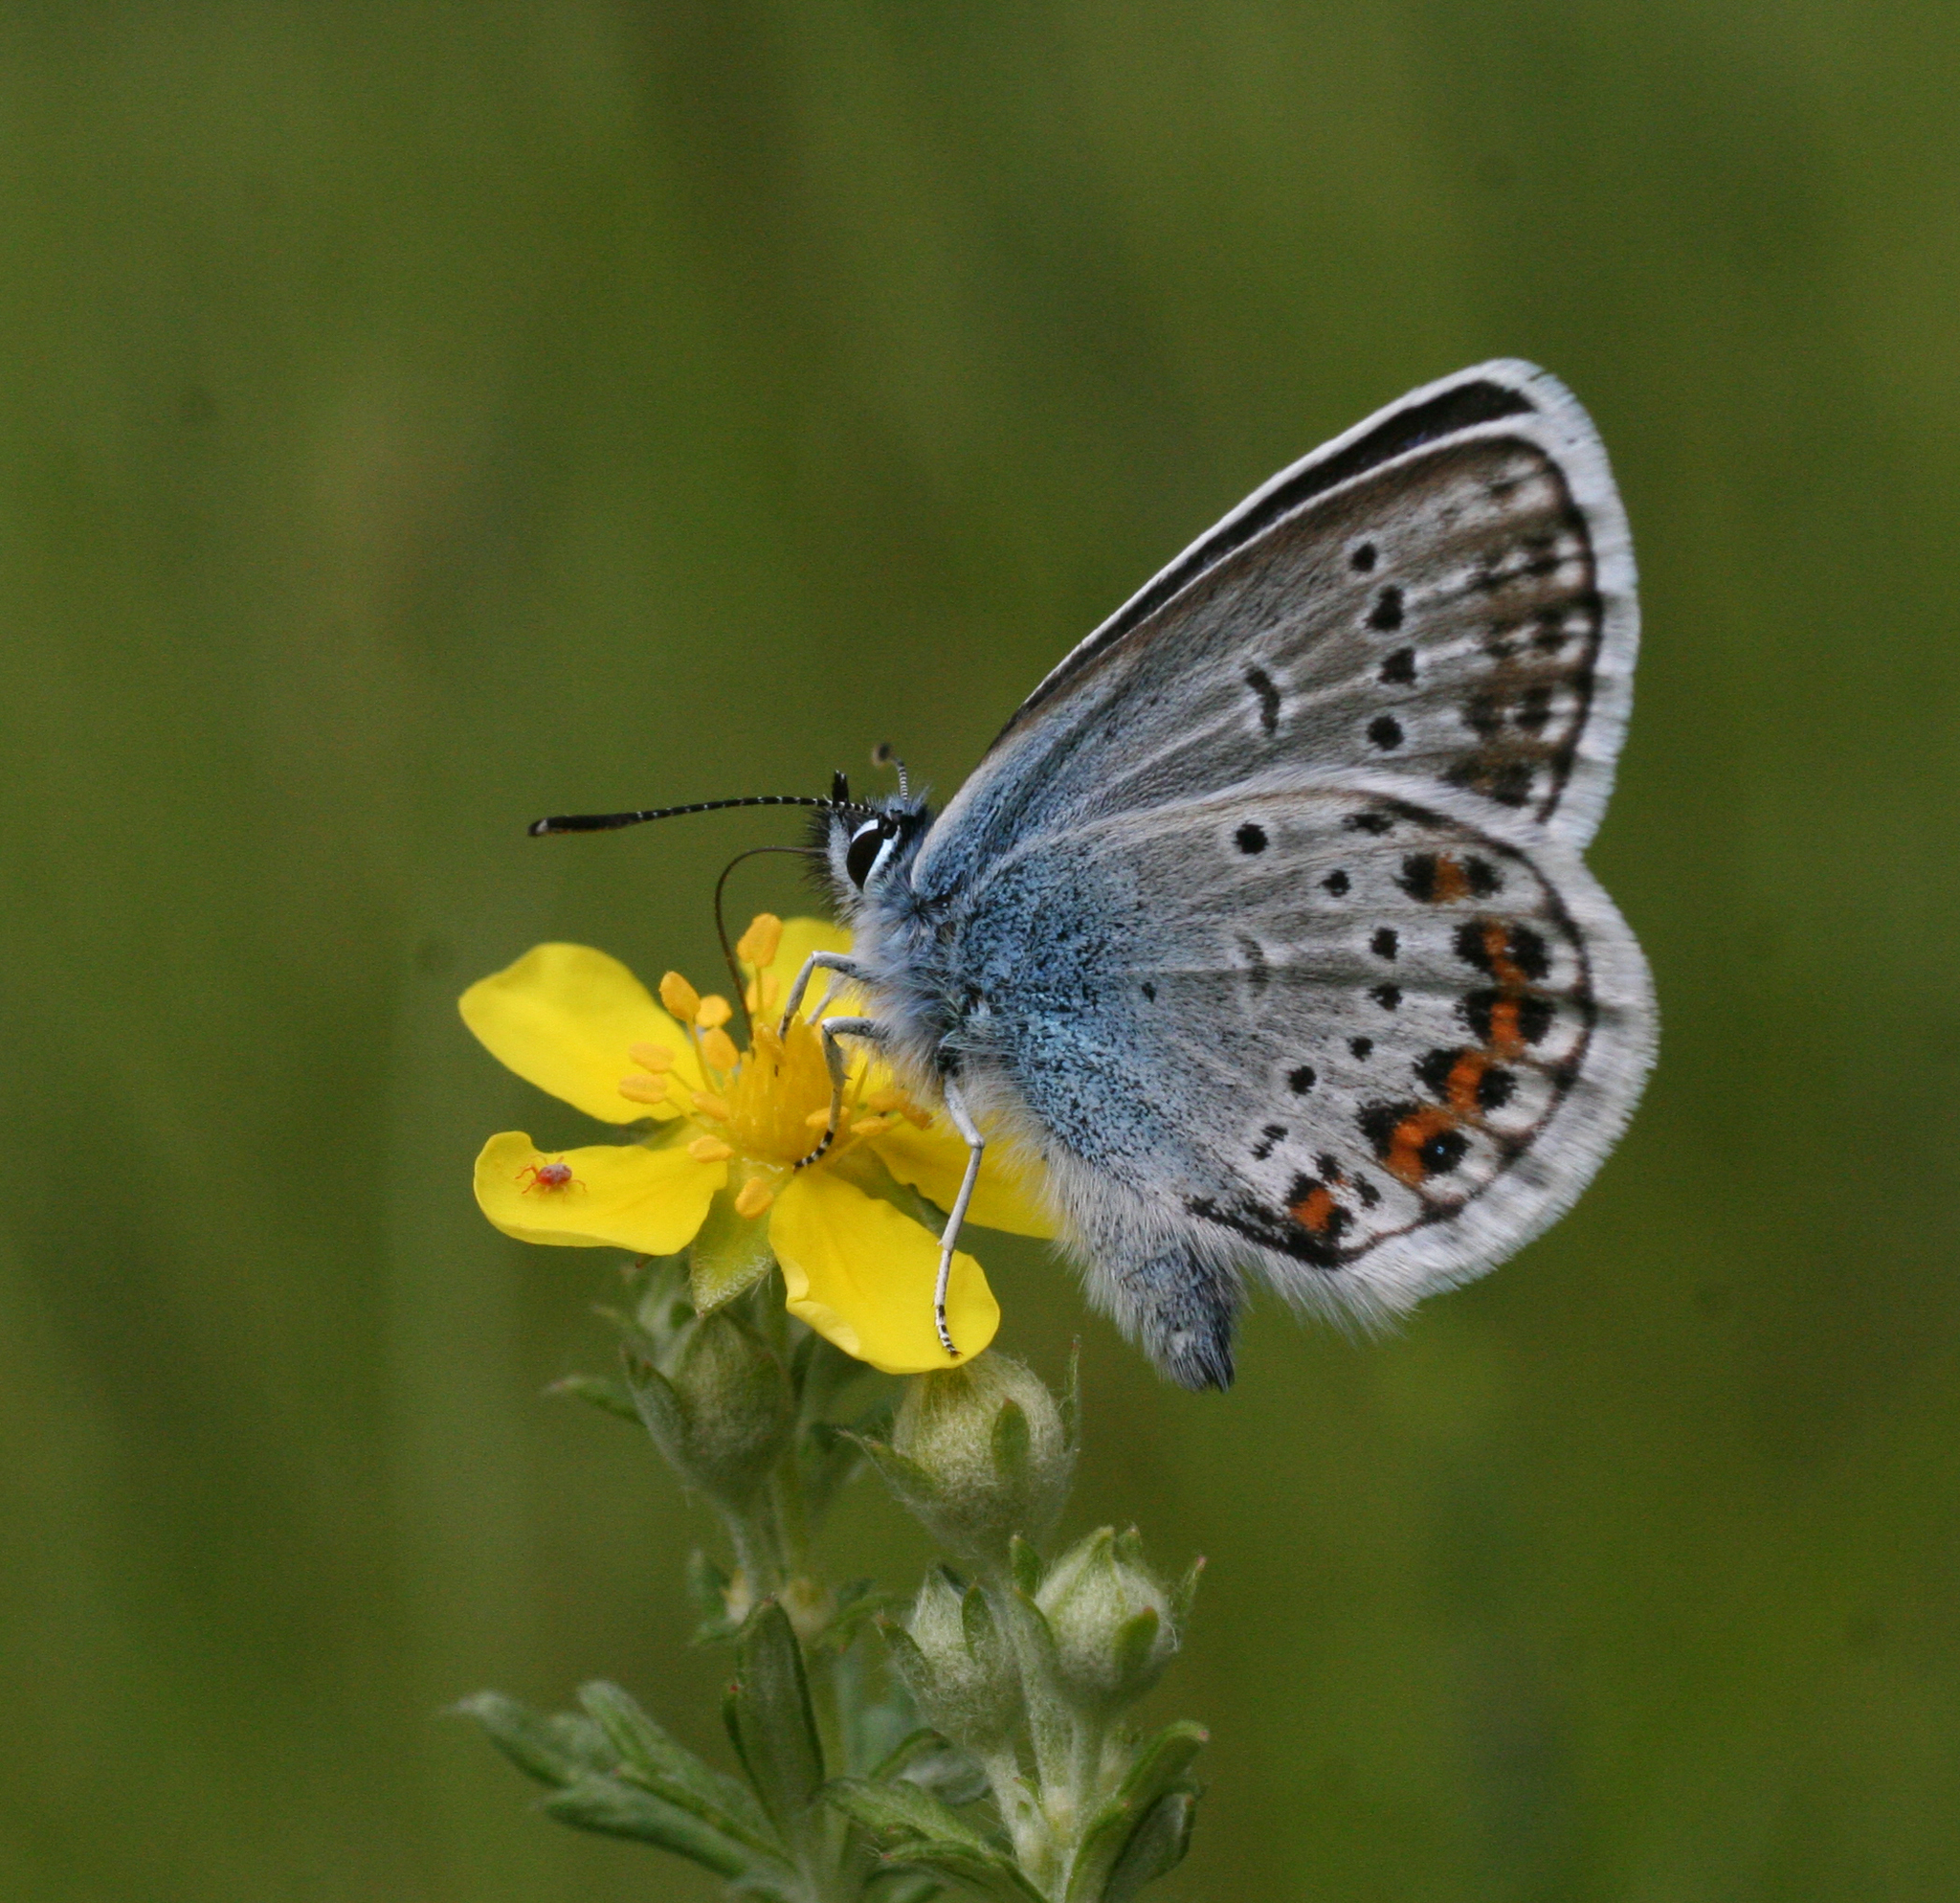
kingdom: Animalia
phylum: Arthropoda
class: Insecta
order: Lepidoptera
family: Lycaenidae
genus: Plebejus
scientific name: Plebejus argus
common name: Silver-studded blue
